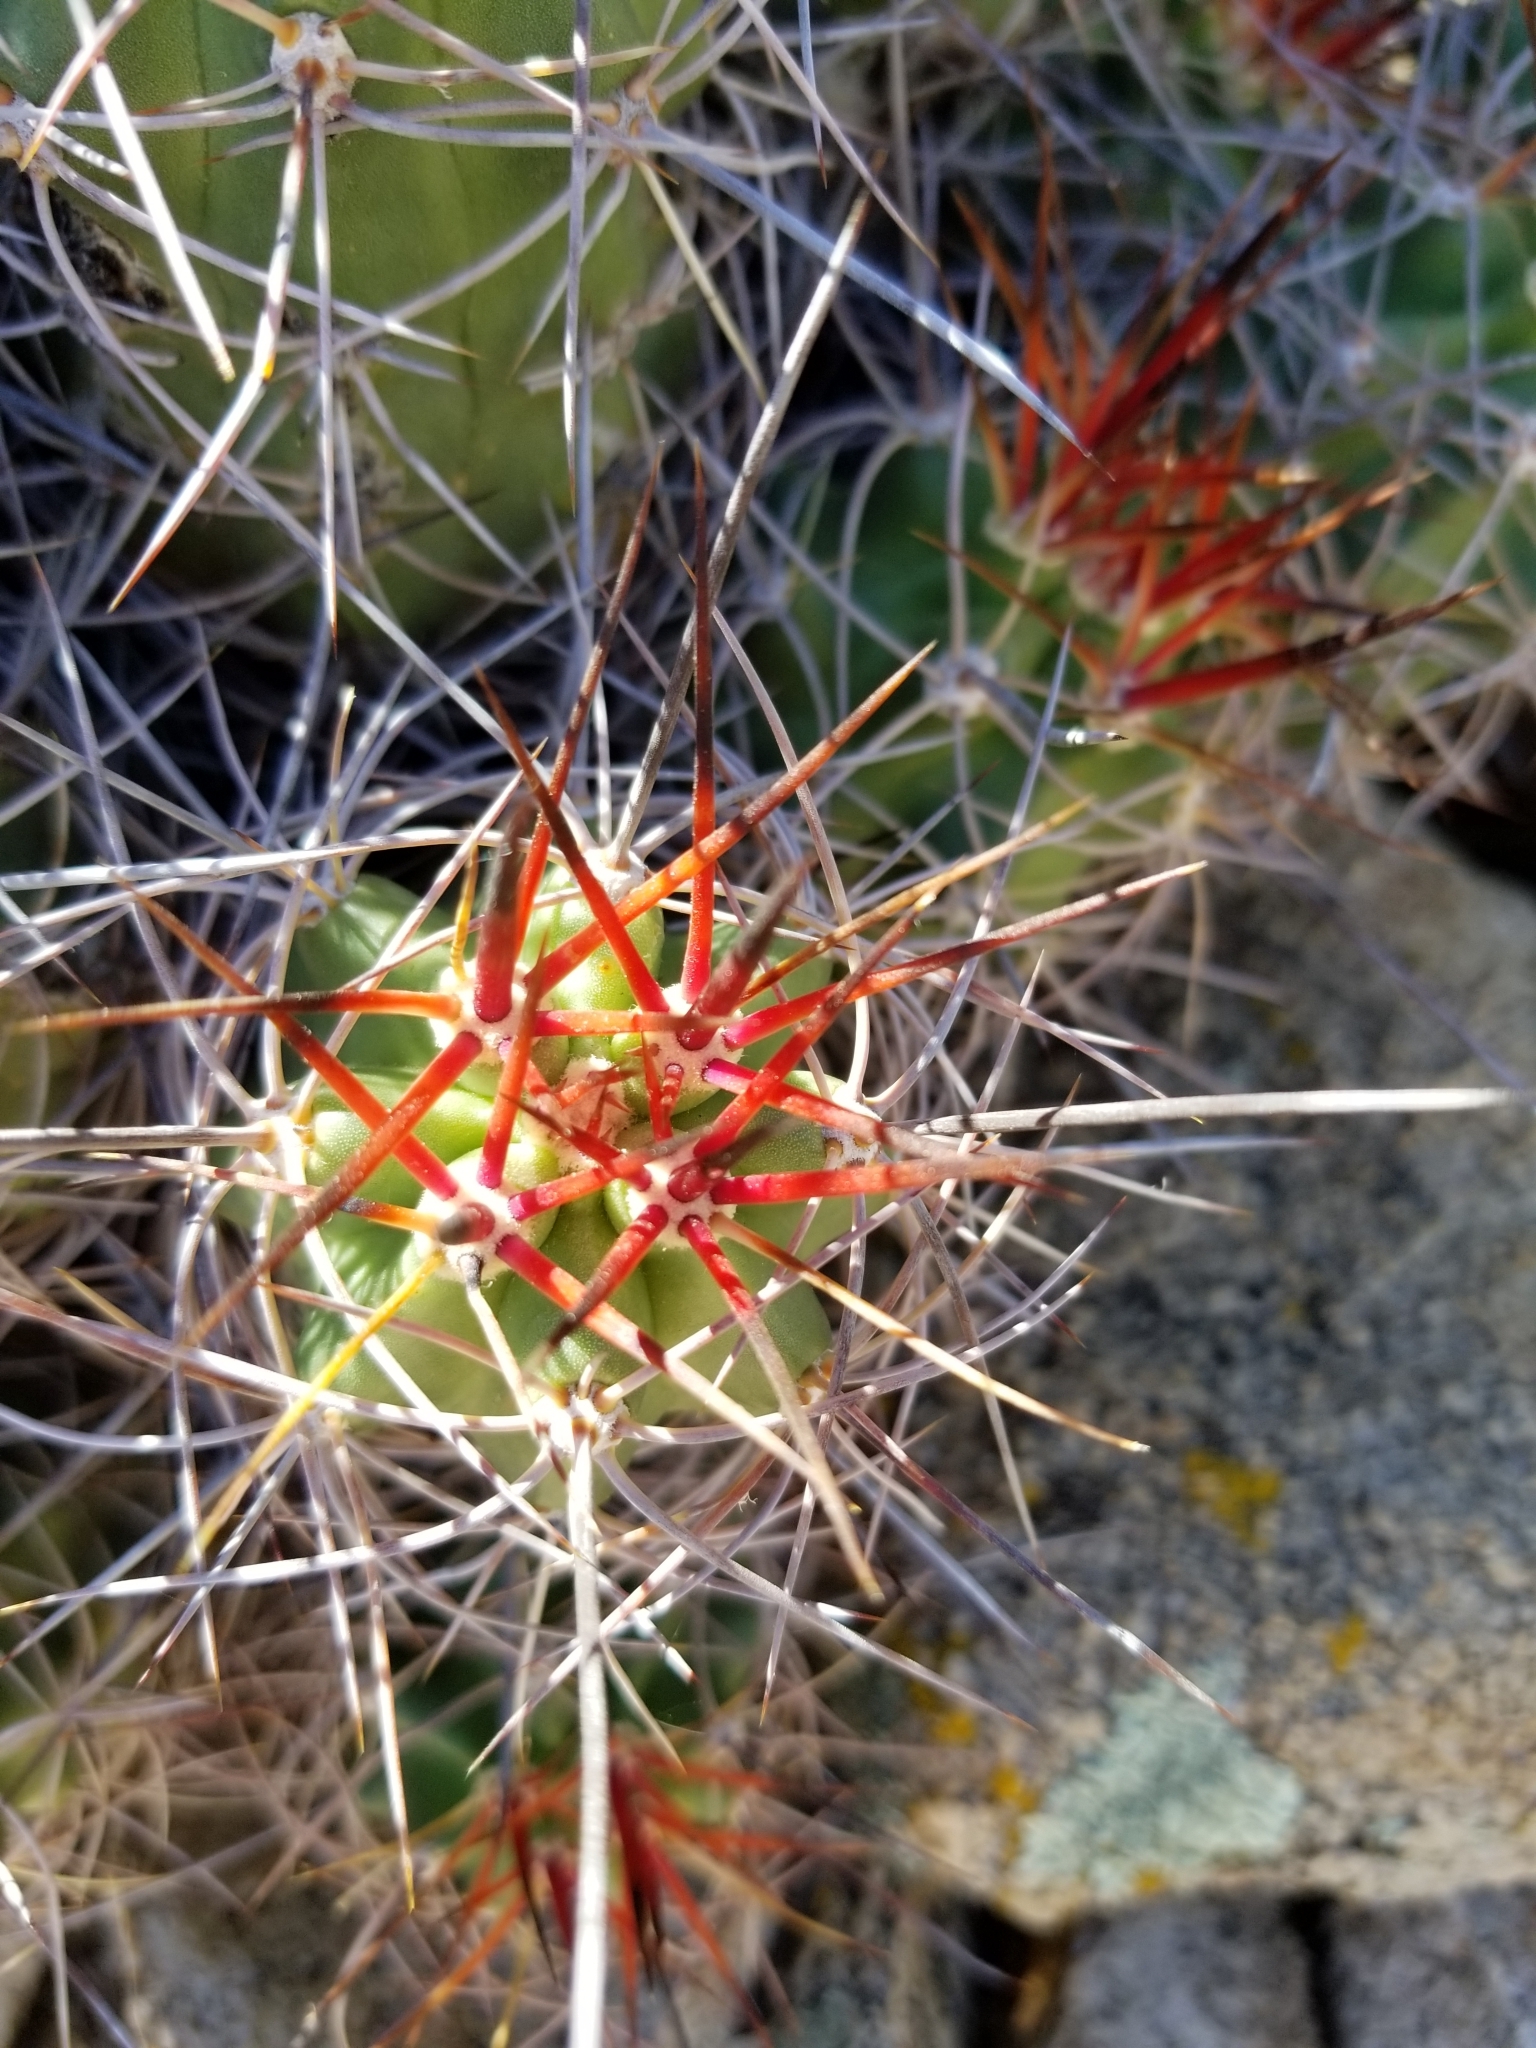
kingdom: Plantae
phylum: Tracheophyta
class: Magnoliopsida
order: Caryophyllales
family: Cactaceae
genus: Echinocereus
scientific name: Echinocereus triglochidiatus
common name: Claretcup hedgehog
